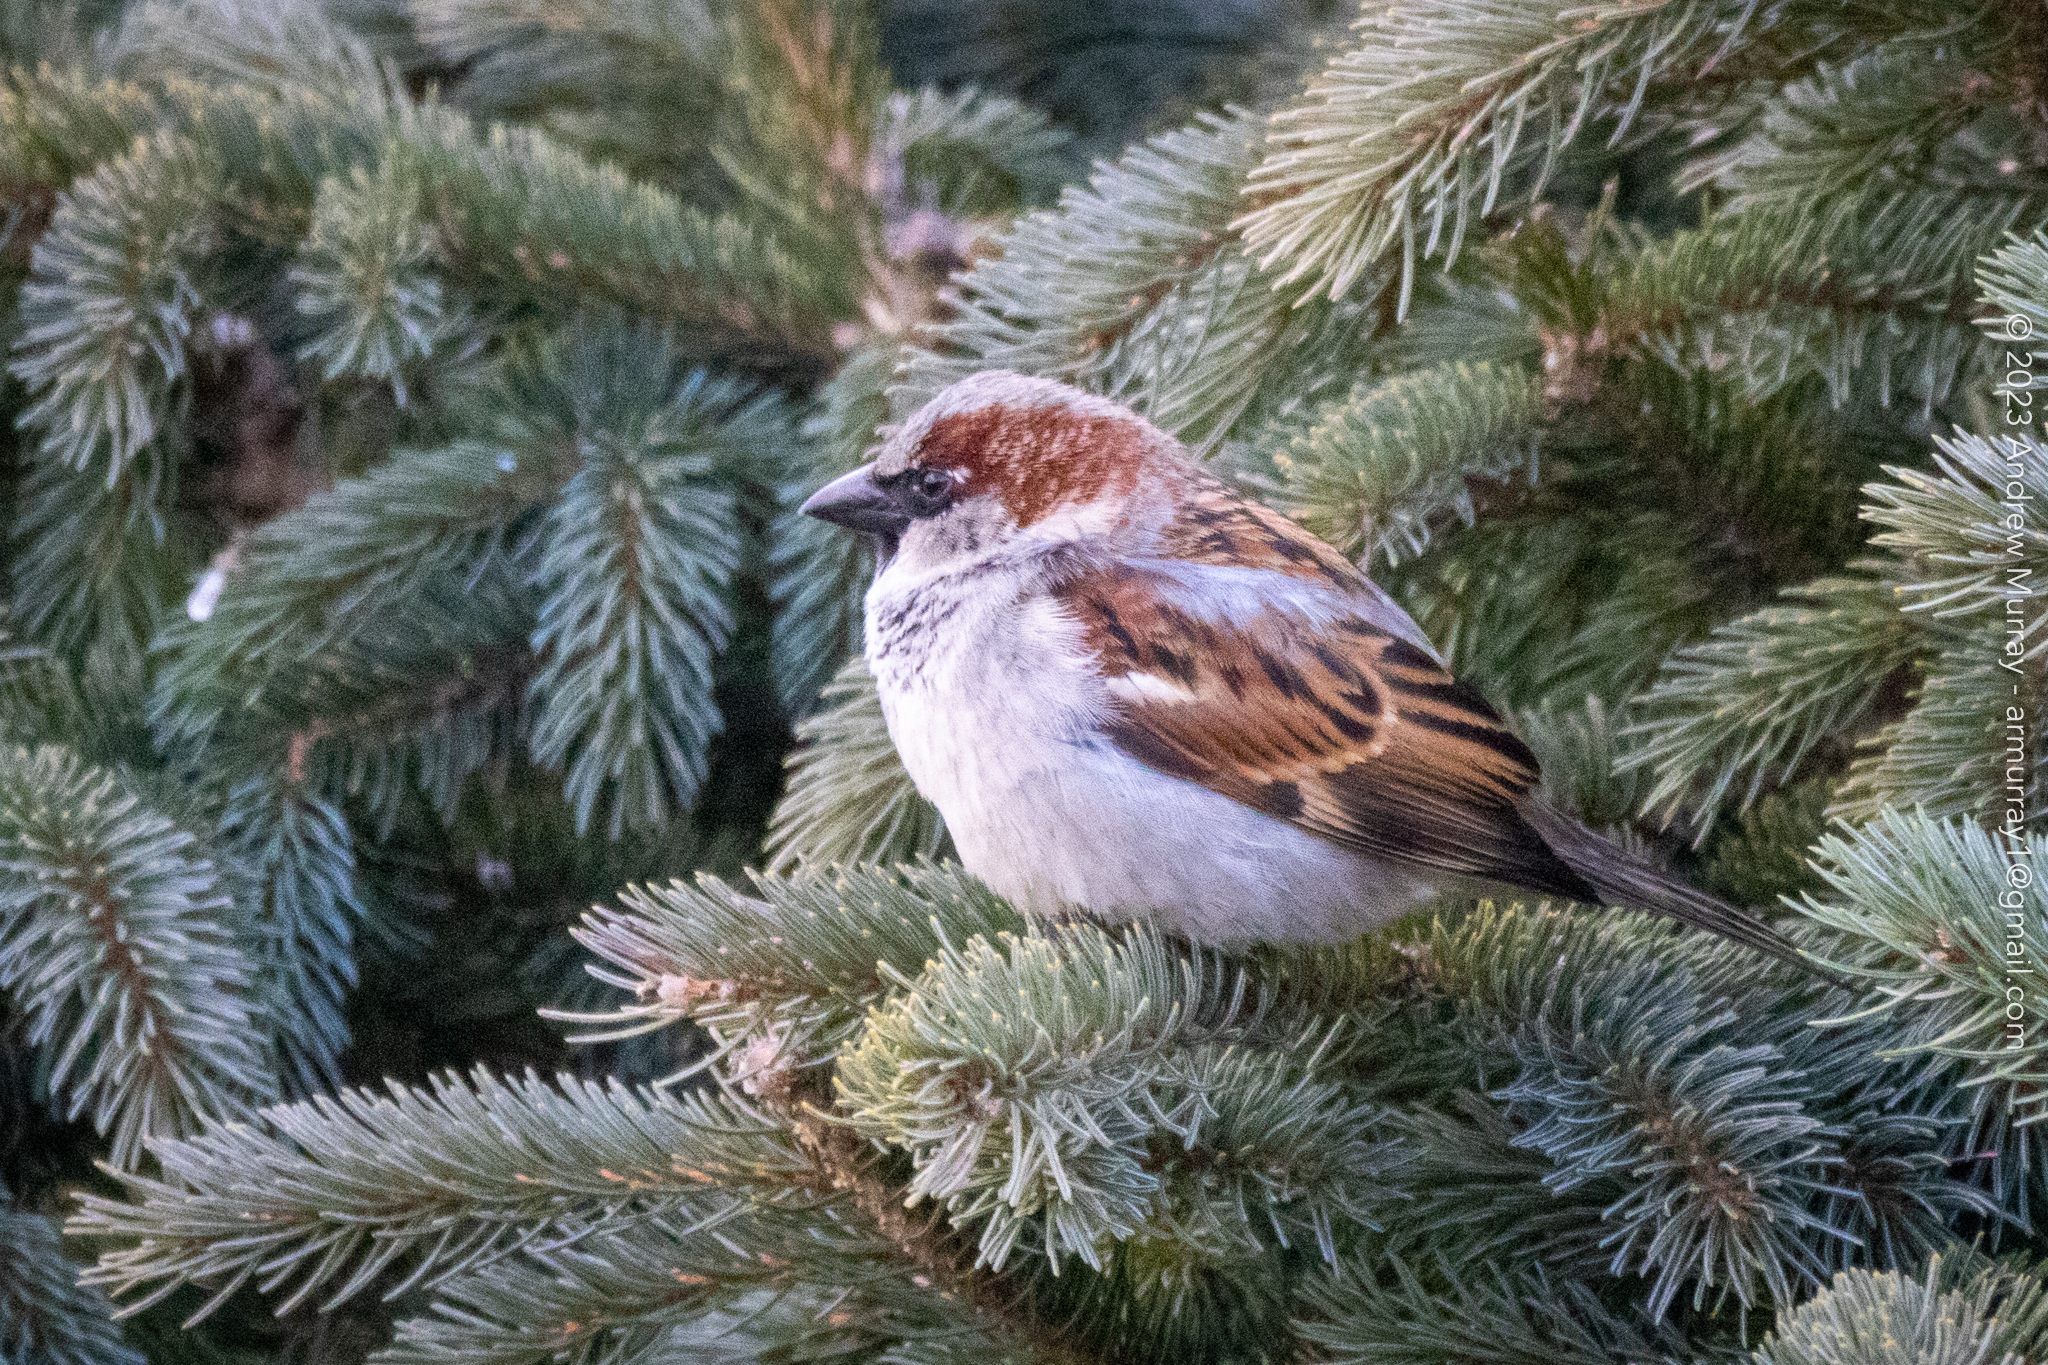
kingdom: Animalia
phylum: Chordata
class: Aves
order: Passeriformes
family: Passeridae
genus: Passer
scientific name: Passer domesticus
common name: House sparrow
